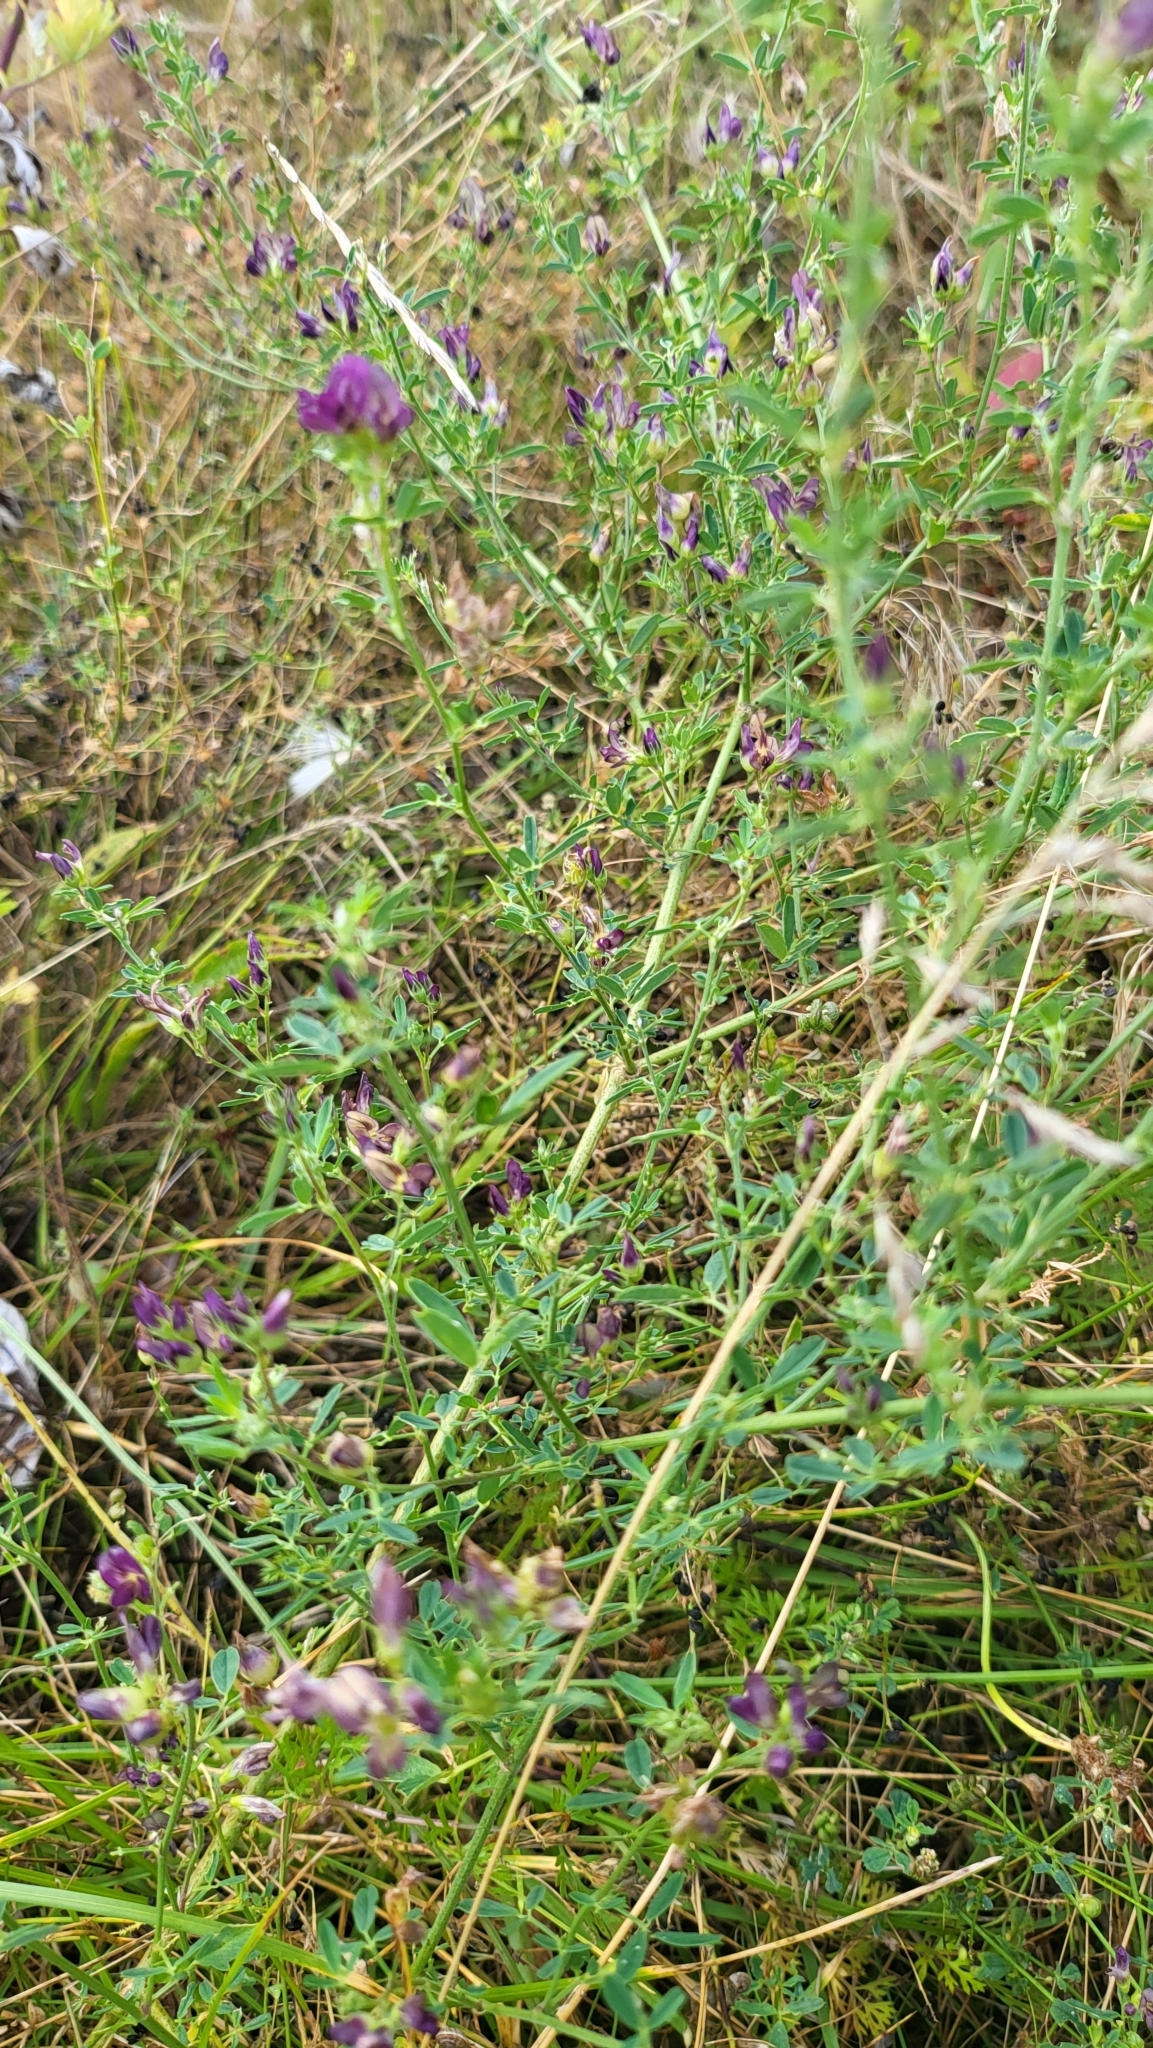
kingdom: Plantae
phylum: Tracheophyta
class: Magnoliopsida
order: Fabales
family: Fabaceae
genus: Medicago
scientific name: Medicago sativa
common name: Alfalfa
